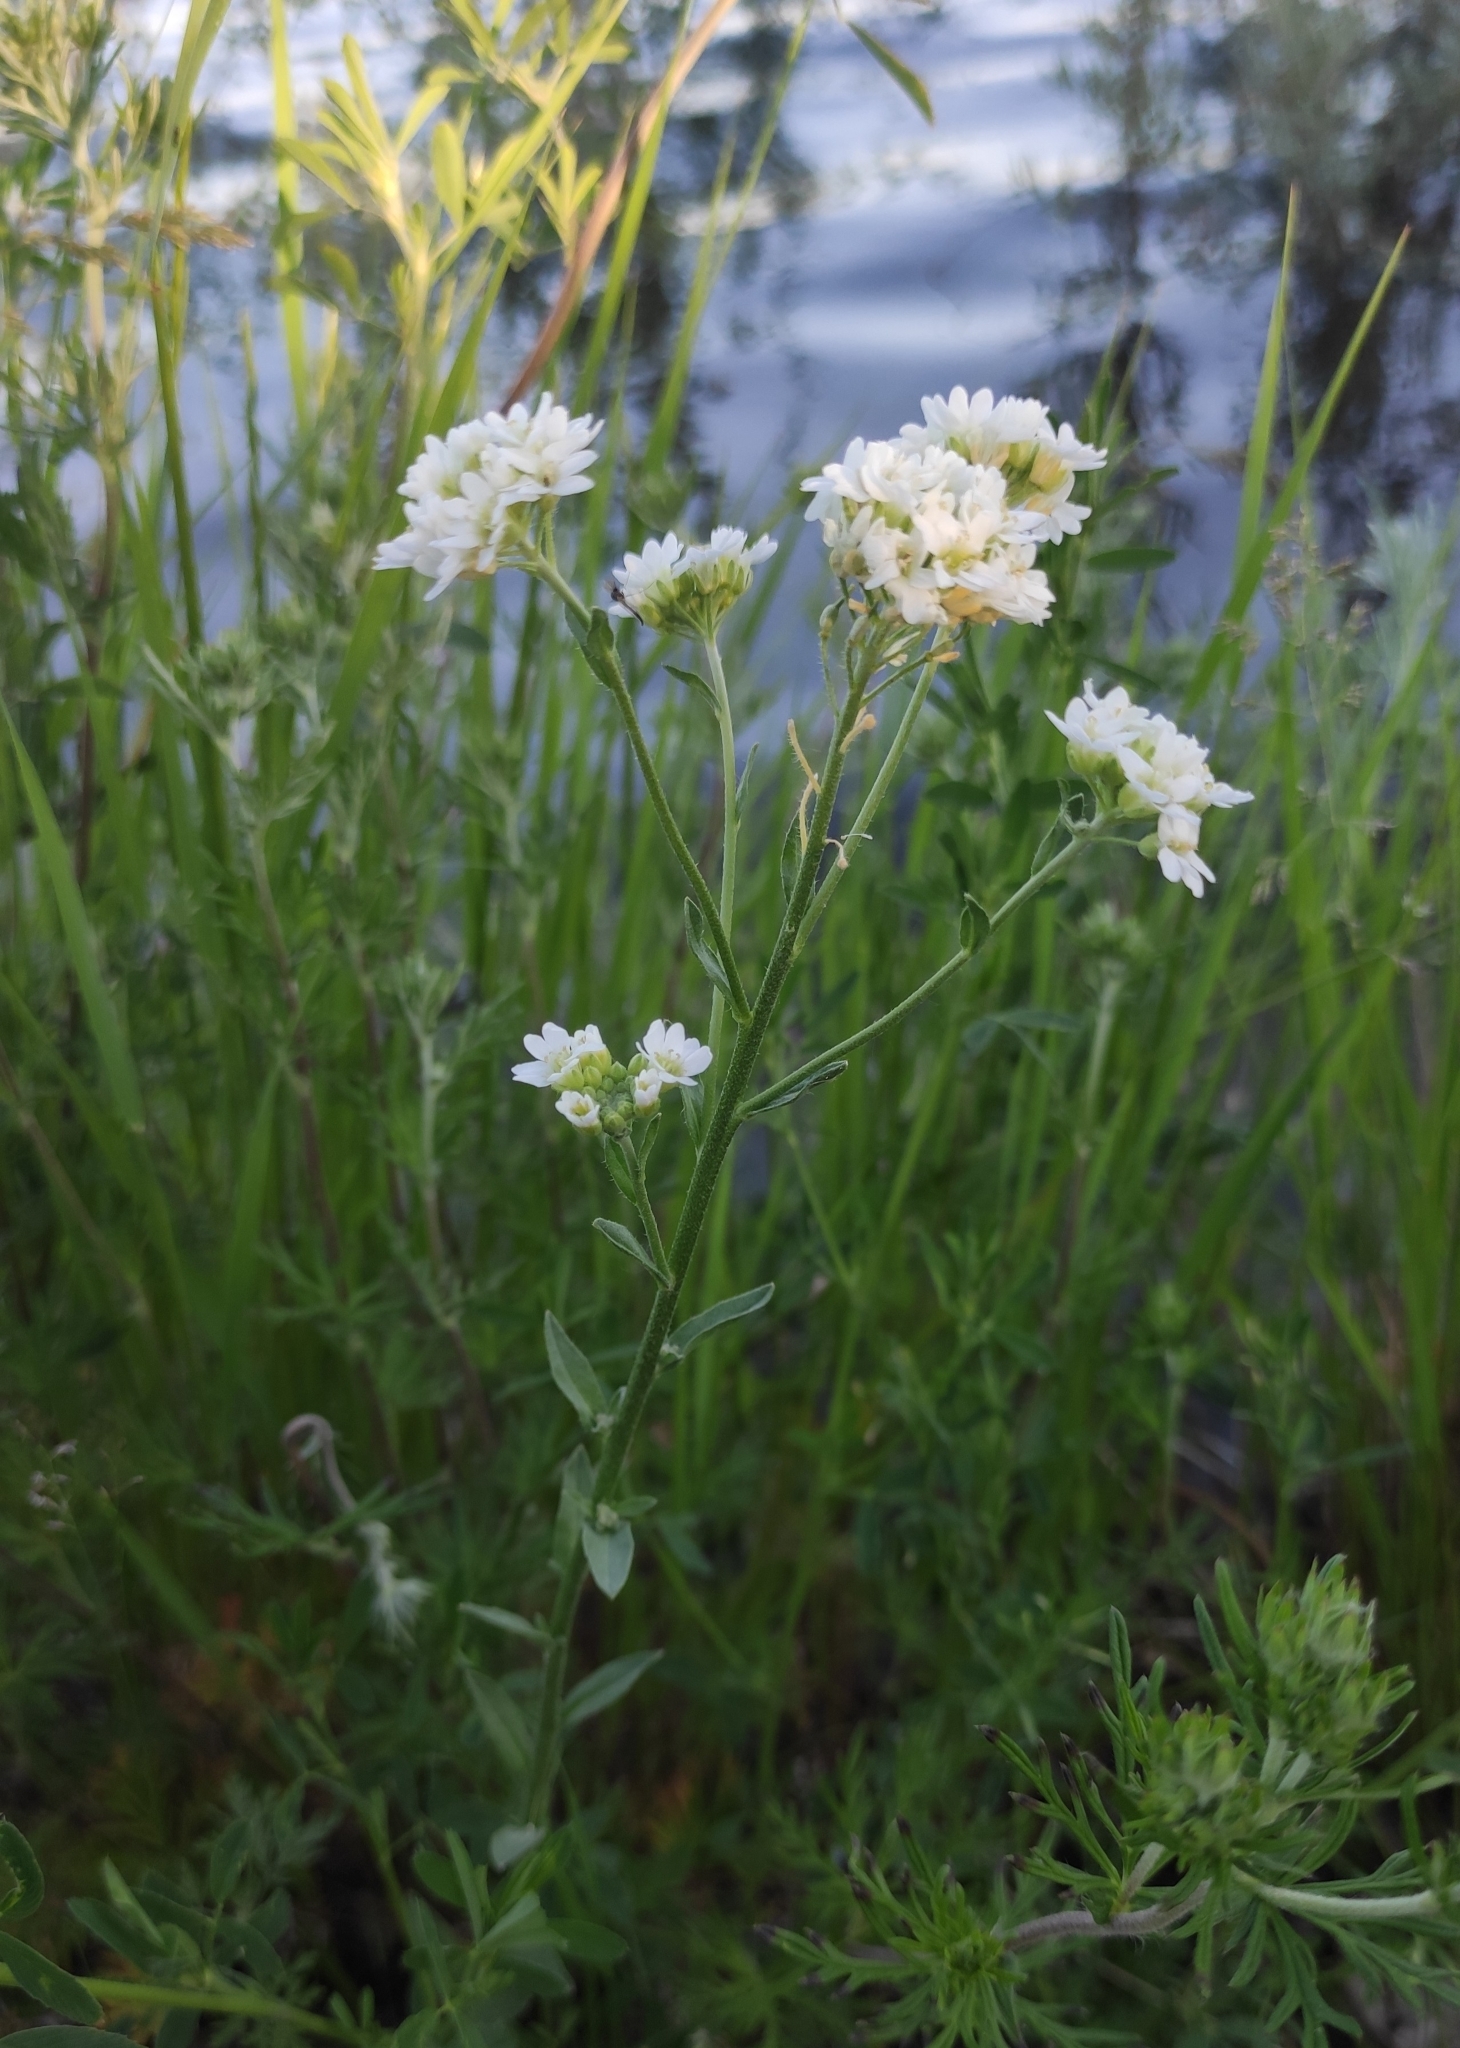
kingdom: Plantae
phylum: Tracheophyta
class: Magnoliopsida
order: Brassicales
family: Brassicaceae
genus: Berteroa
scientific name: Berteroa incana
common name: Hoary alison
